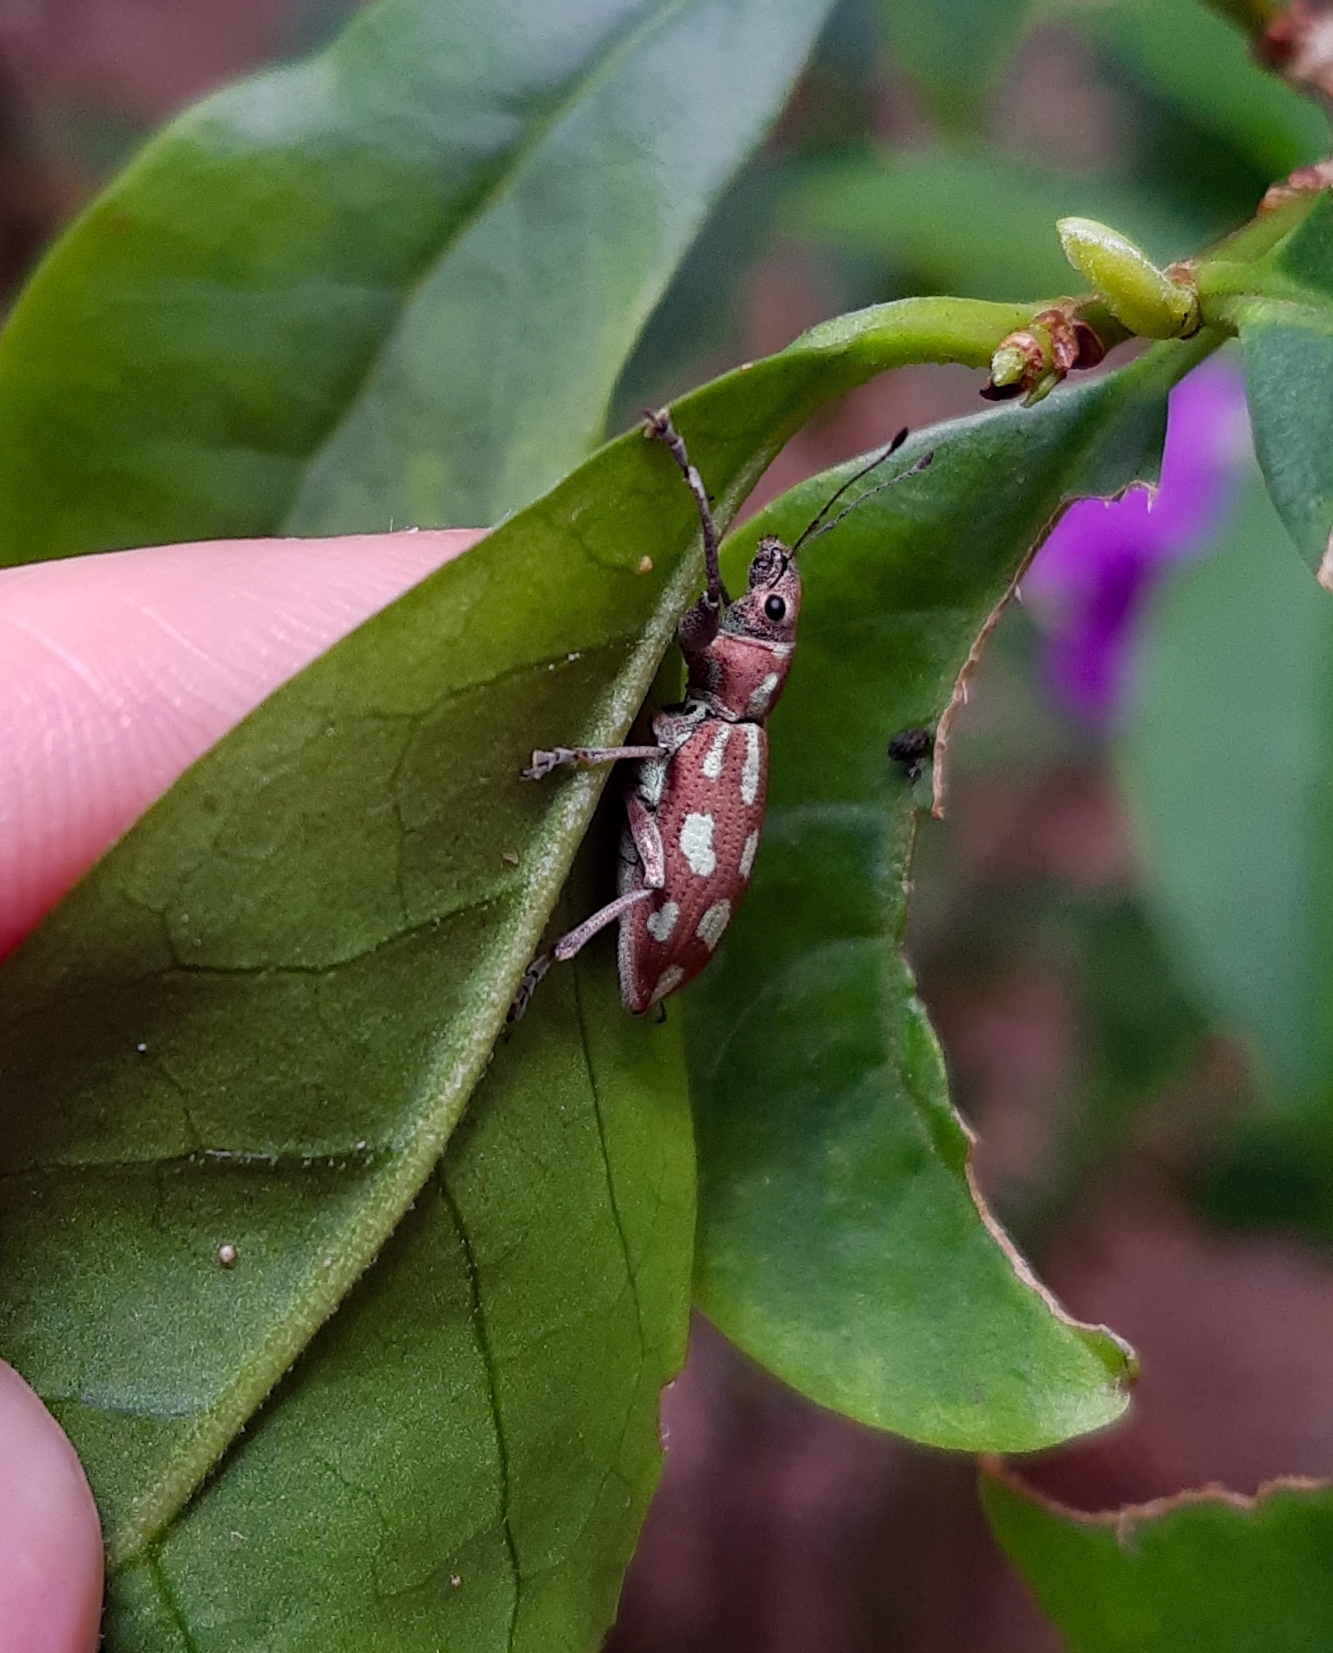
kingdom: Animalia
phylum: Arthropoda
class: Insecta
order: Coleoptera
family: Curculionidae
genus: Naupactus
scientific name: Naupactus bellus
